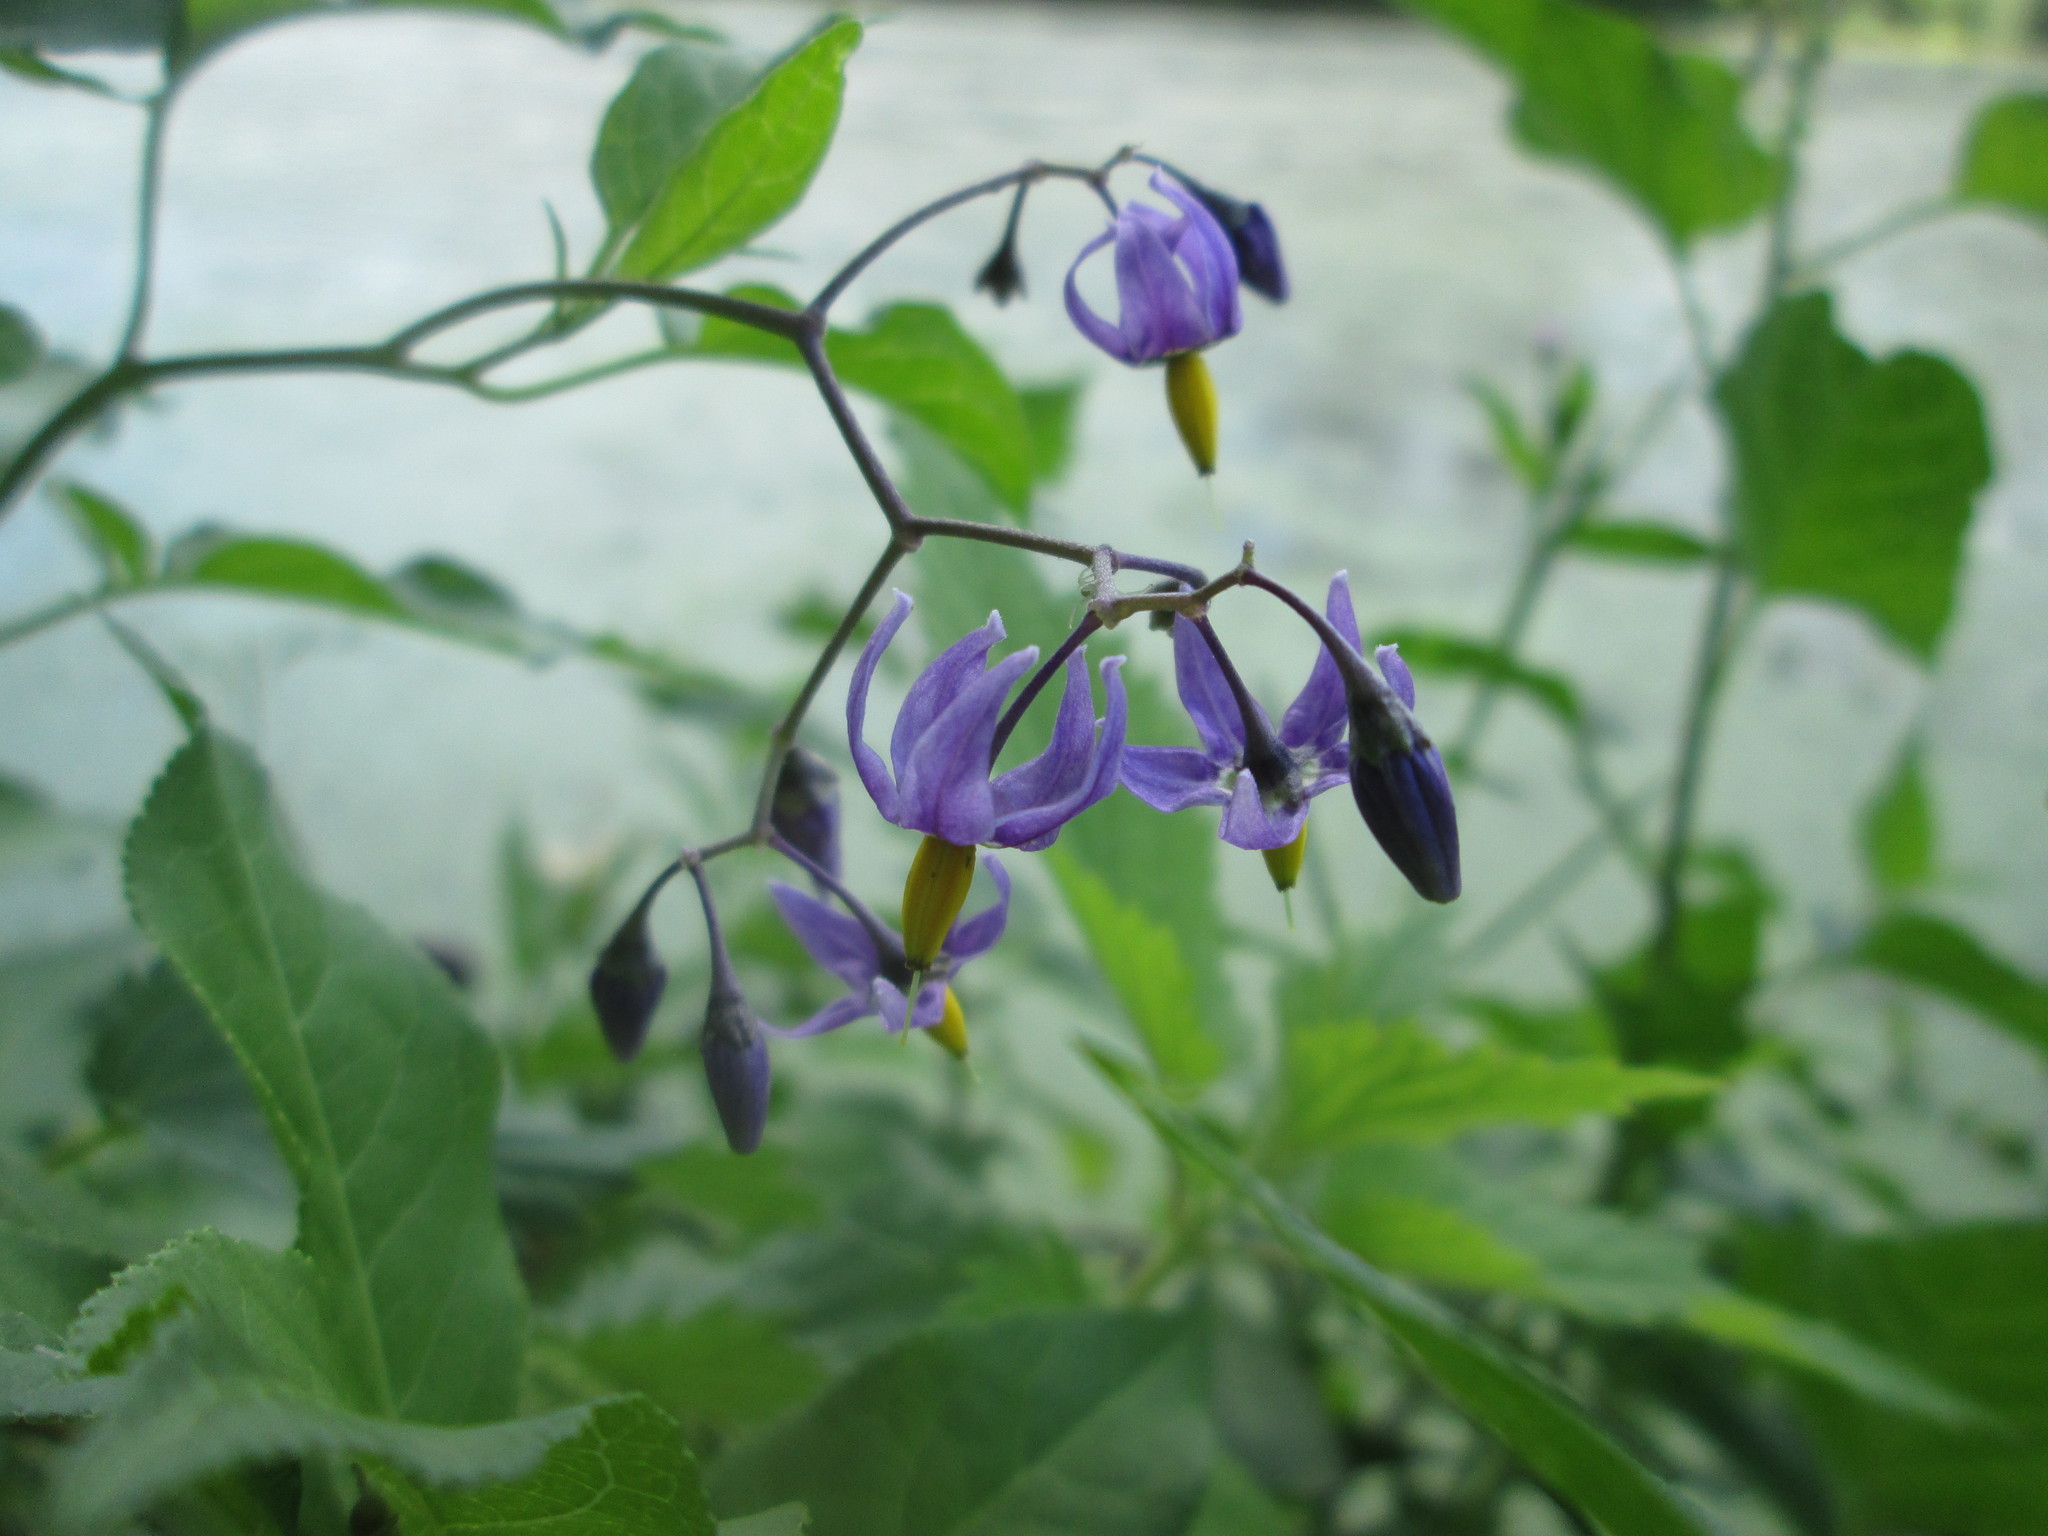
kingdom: Plantae
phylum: Tracheophyta
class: Magnoliopsida
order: Solanales
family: Solanaceae
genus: Solanum
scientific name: Solanum dulcamara
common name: Climbing nightshade
